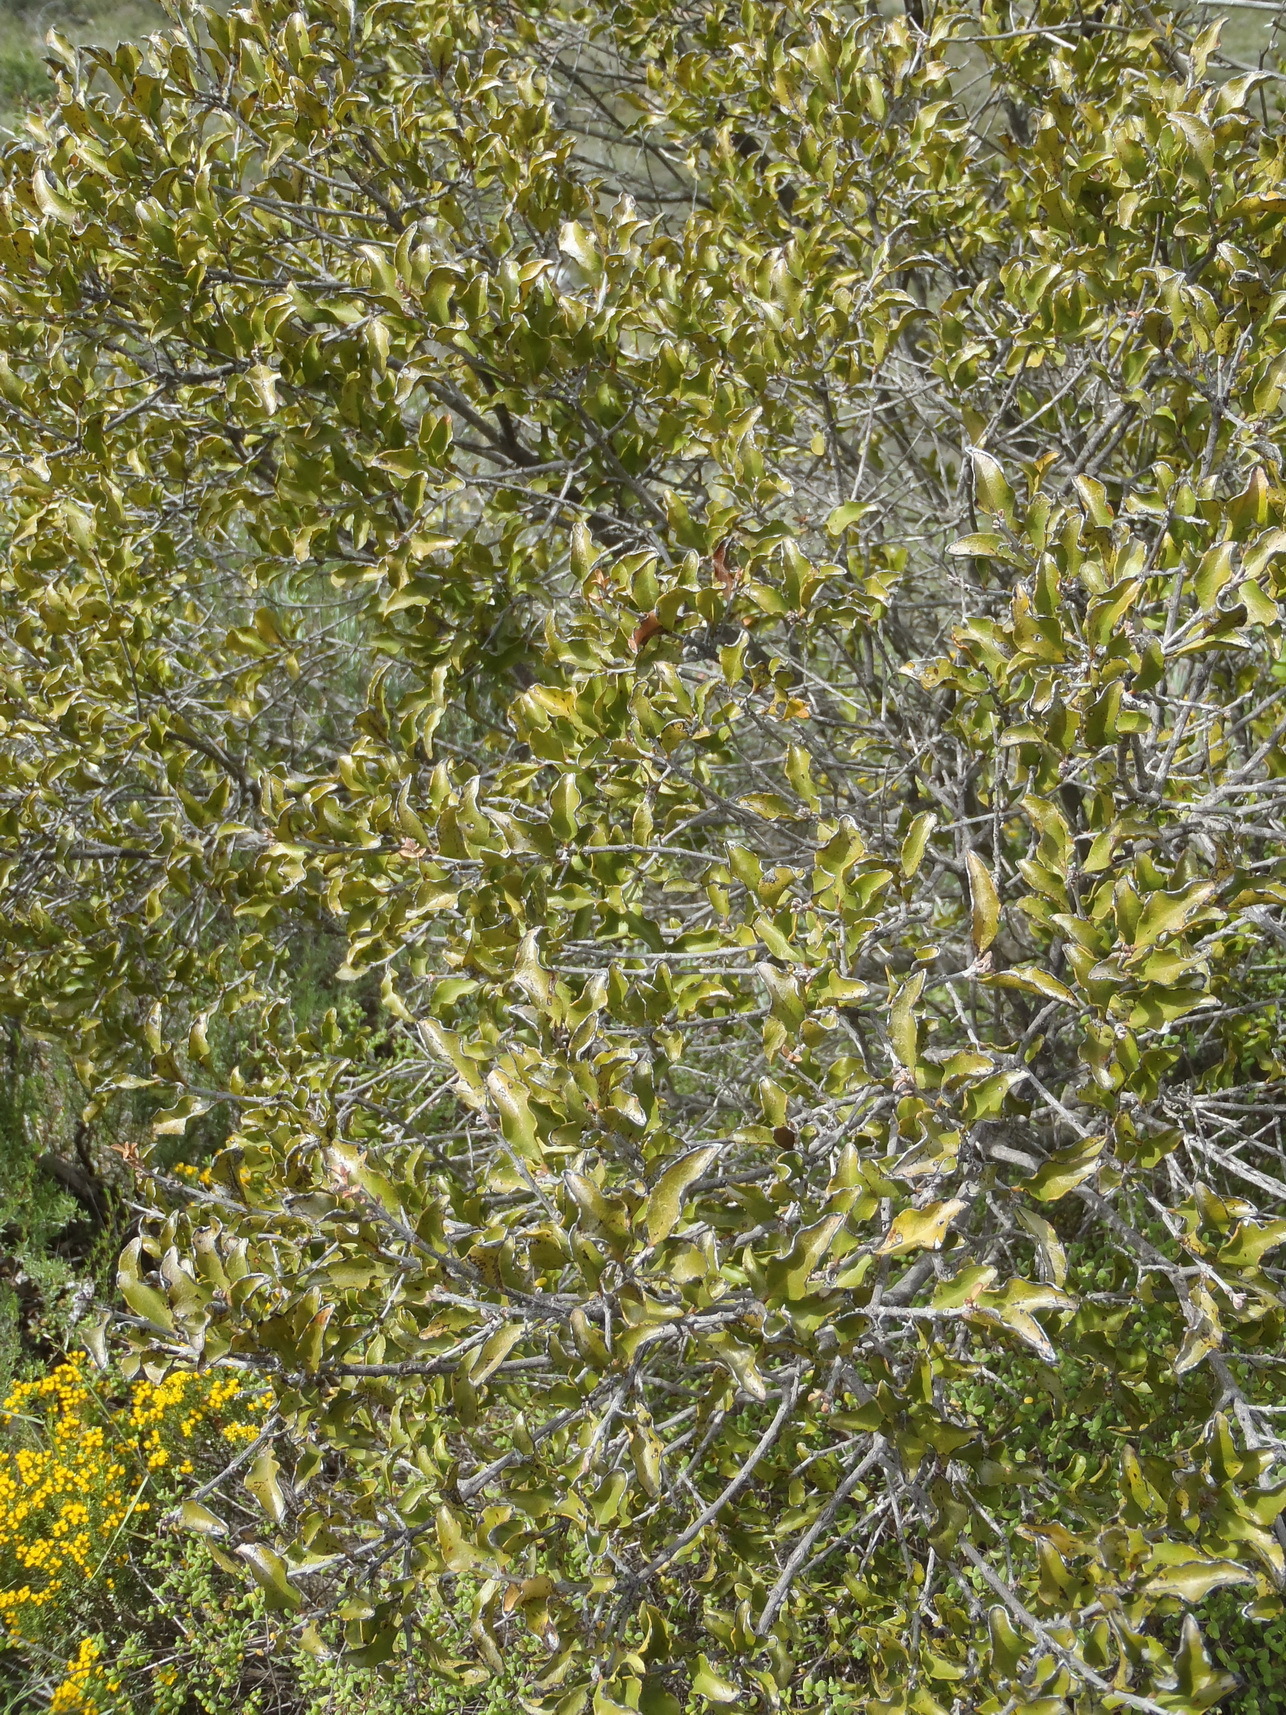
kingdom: Plantae
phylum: Tracheophyta
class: Magnoliopsida
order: Ericales
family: Ebenaceae
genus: Euclea
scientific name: Euclea undulata
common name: Small-leaved guarri
